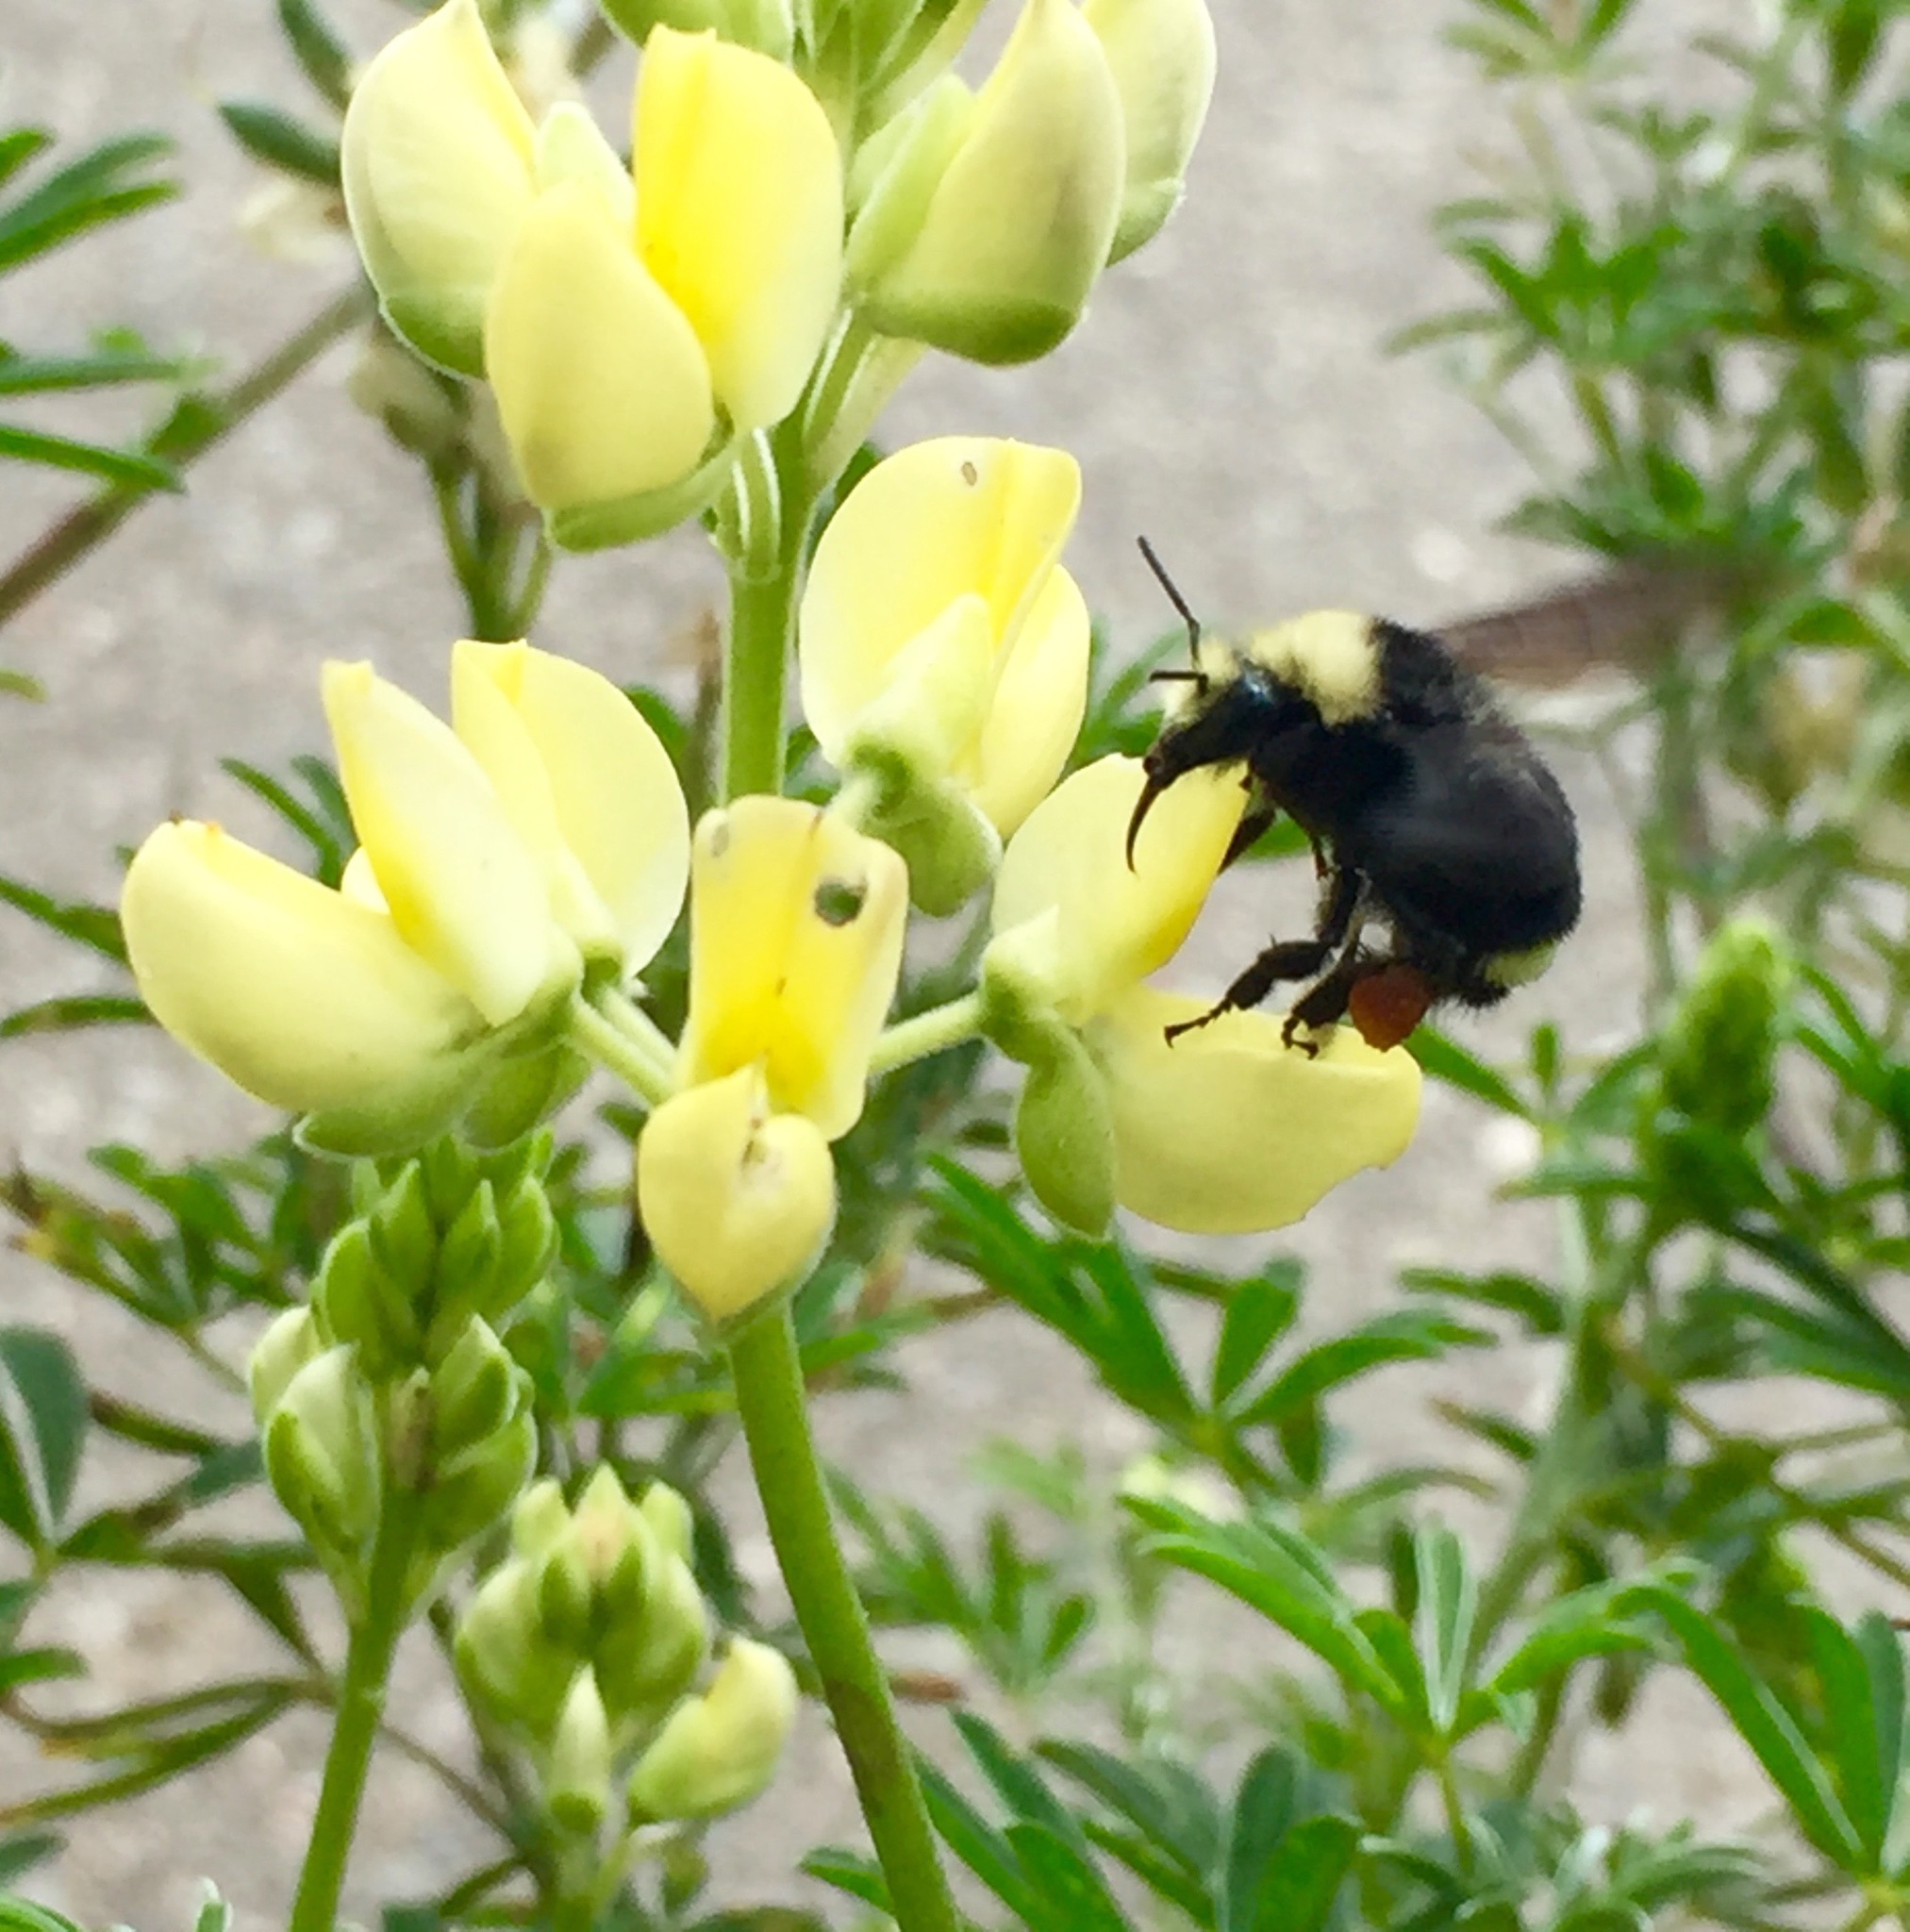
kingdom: Animalia
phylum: Arthropoda
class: Insecta
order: Hymenoptera
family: Apidae
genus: Pyrobombus
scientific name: Pyrobombus
